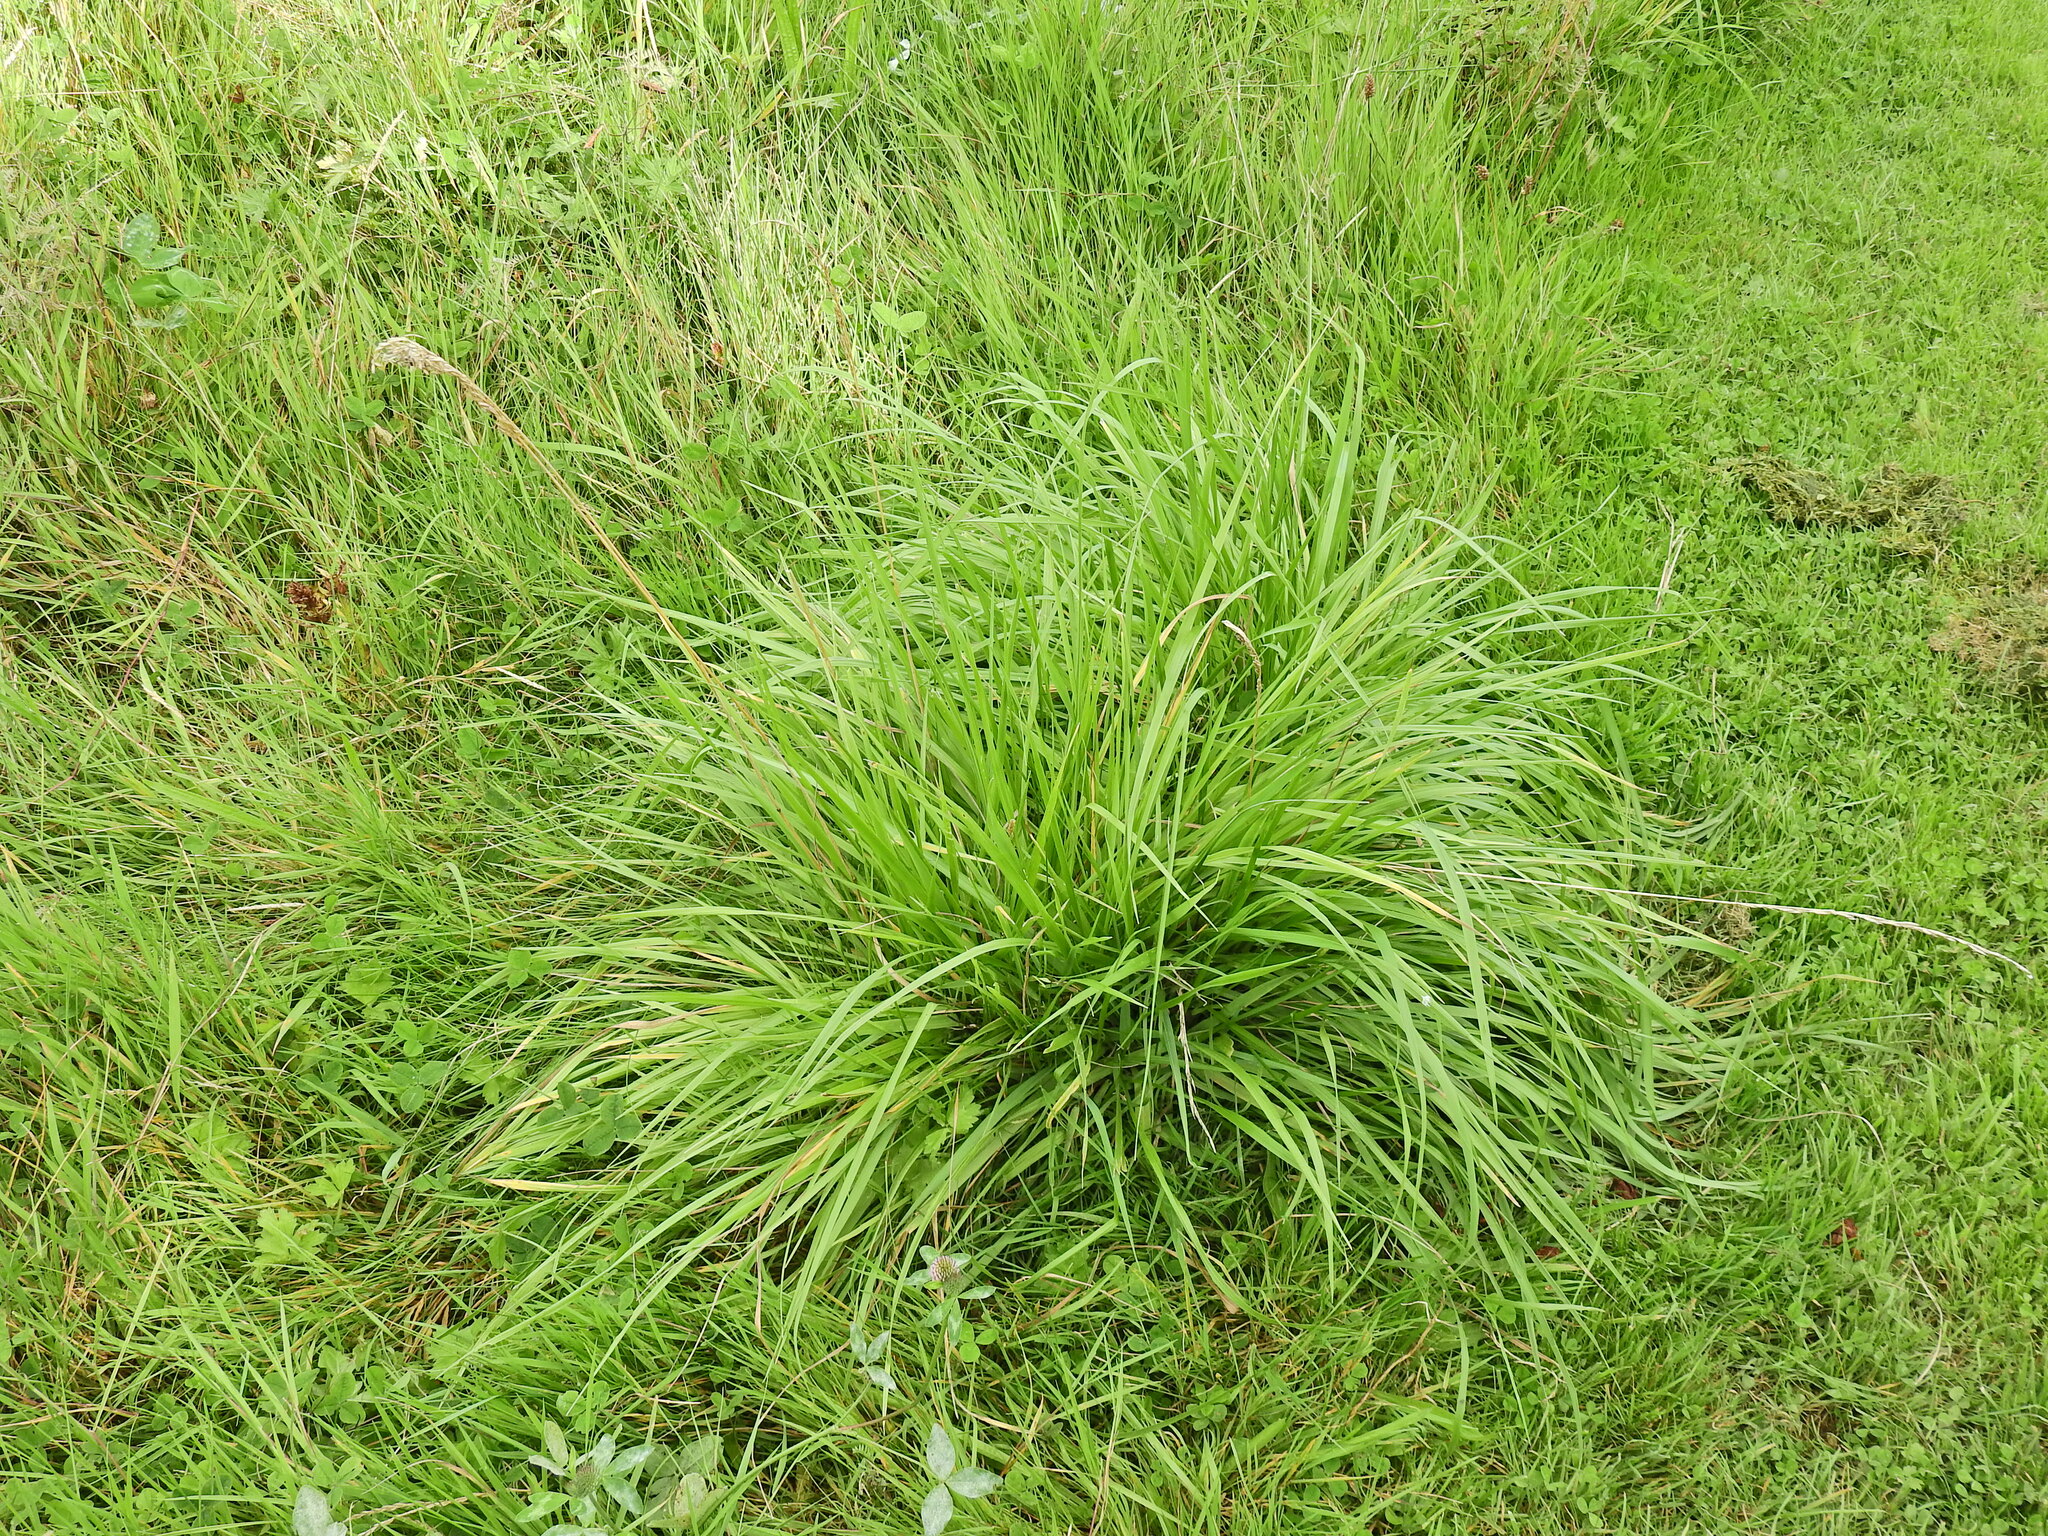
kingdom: Plantae
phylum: Tracheophyta
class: Liliopsida
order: Poales
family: Poaceae
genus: Dactylis
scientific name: Dactylis glomerata
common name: Orchardgrass
